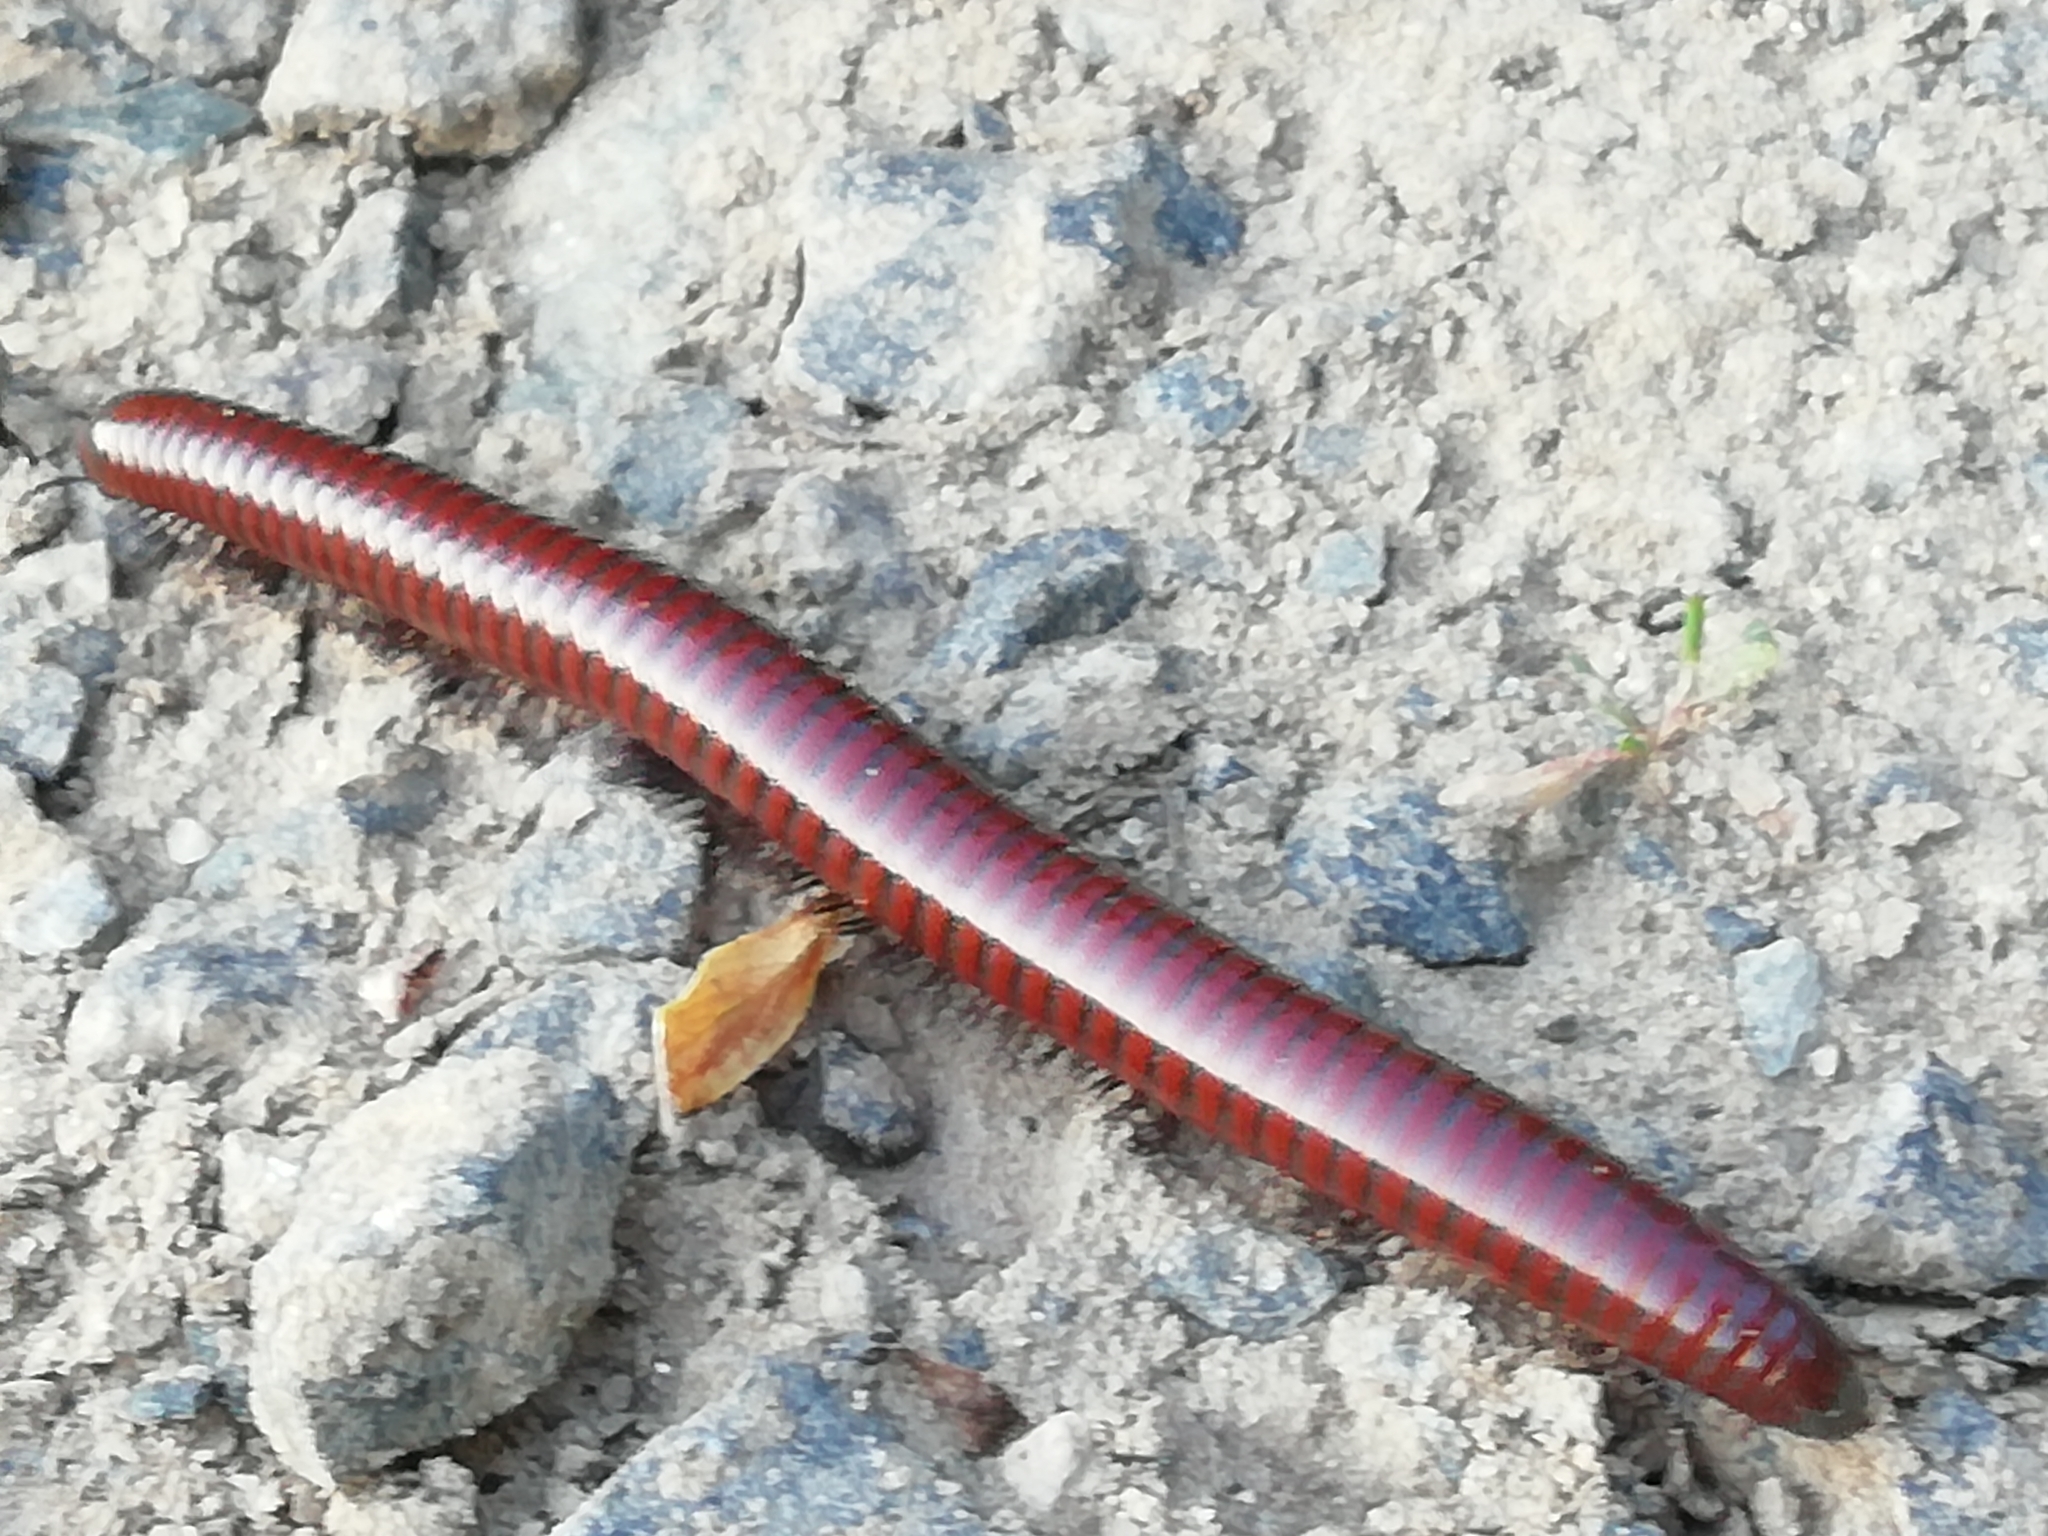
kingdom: Animalia
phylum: Arthropoda
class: Diplopoda
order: Julida
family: Julidae
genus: Pachyiulus
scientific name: Pachyiulus hungaricus
